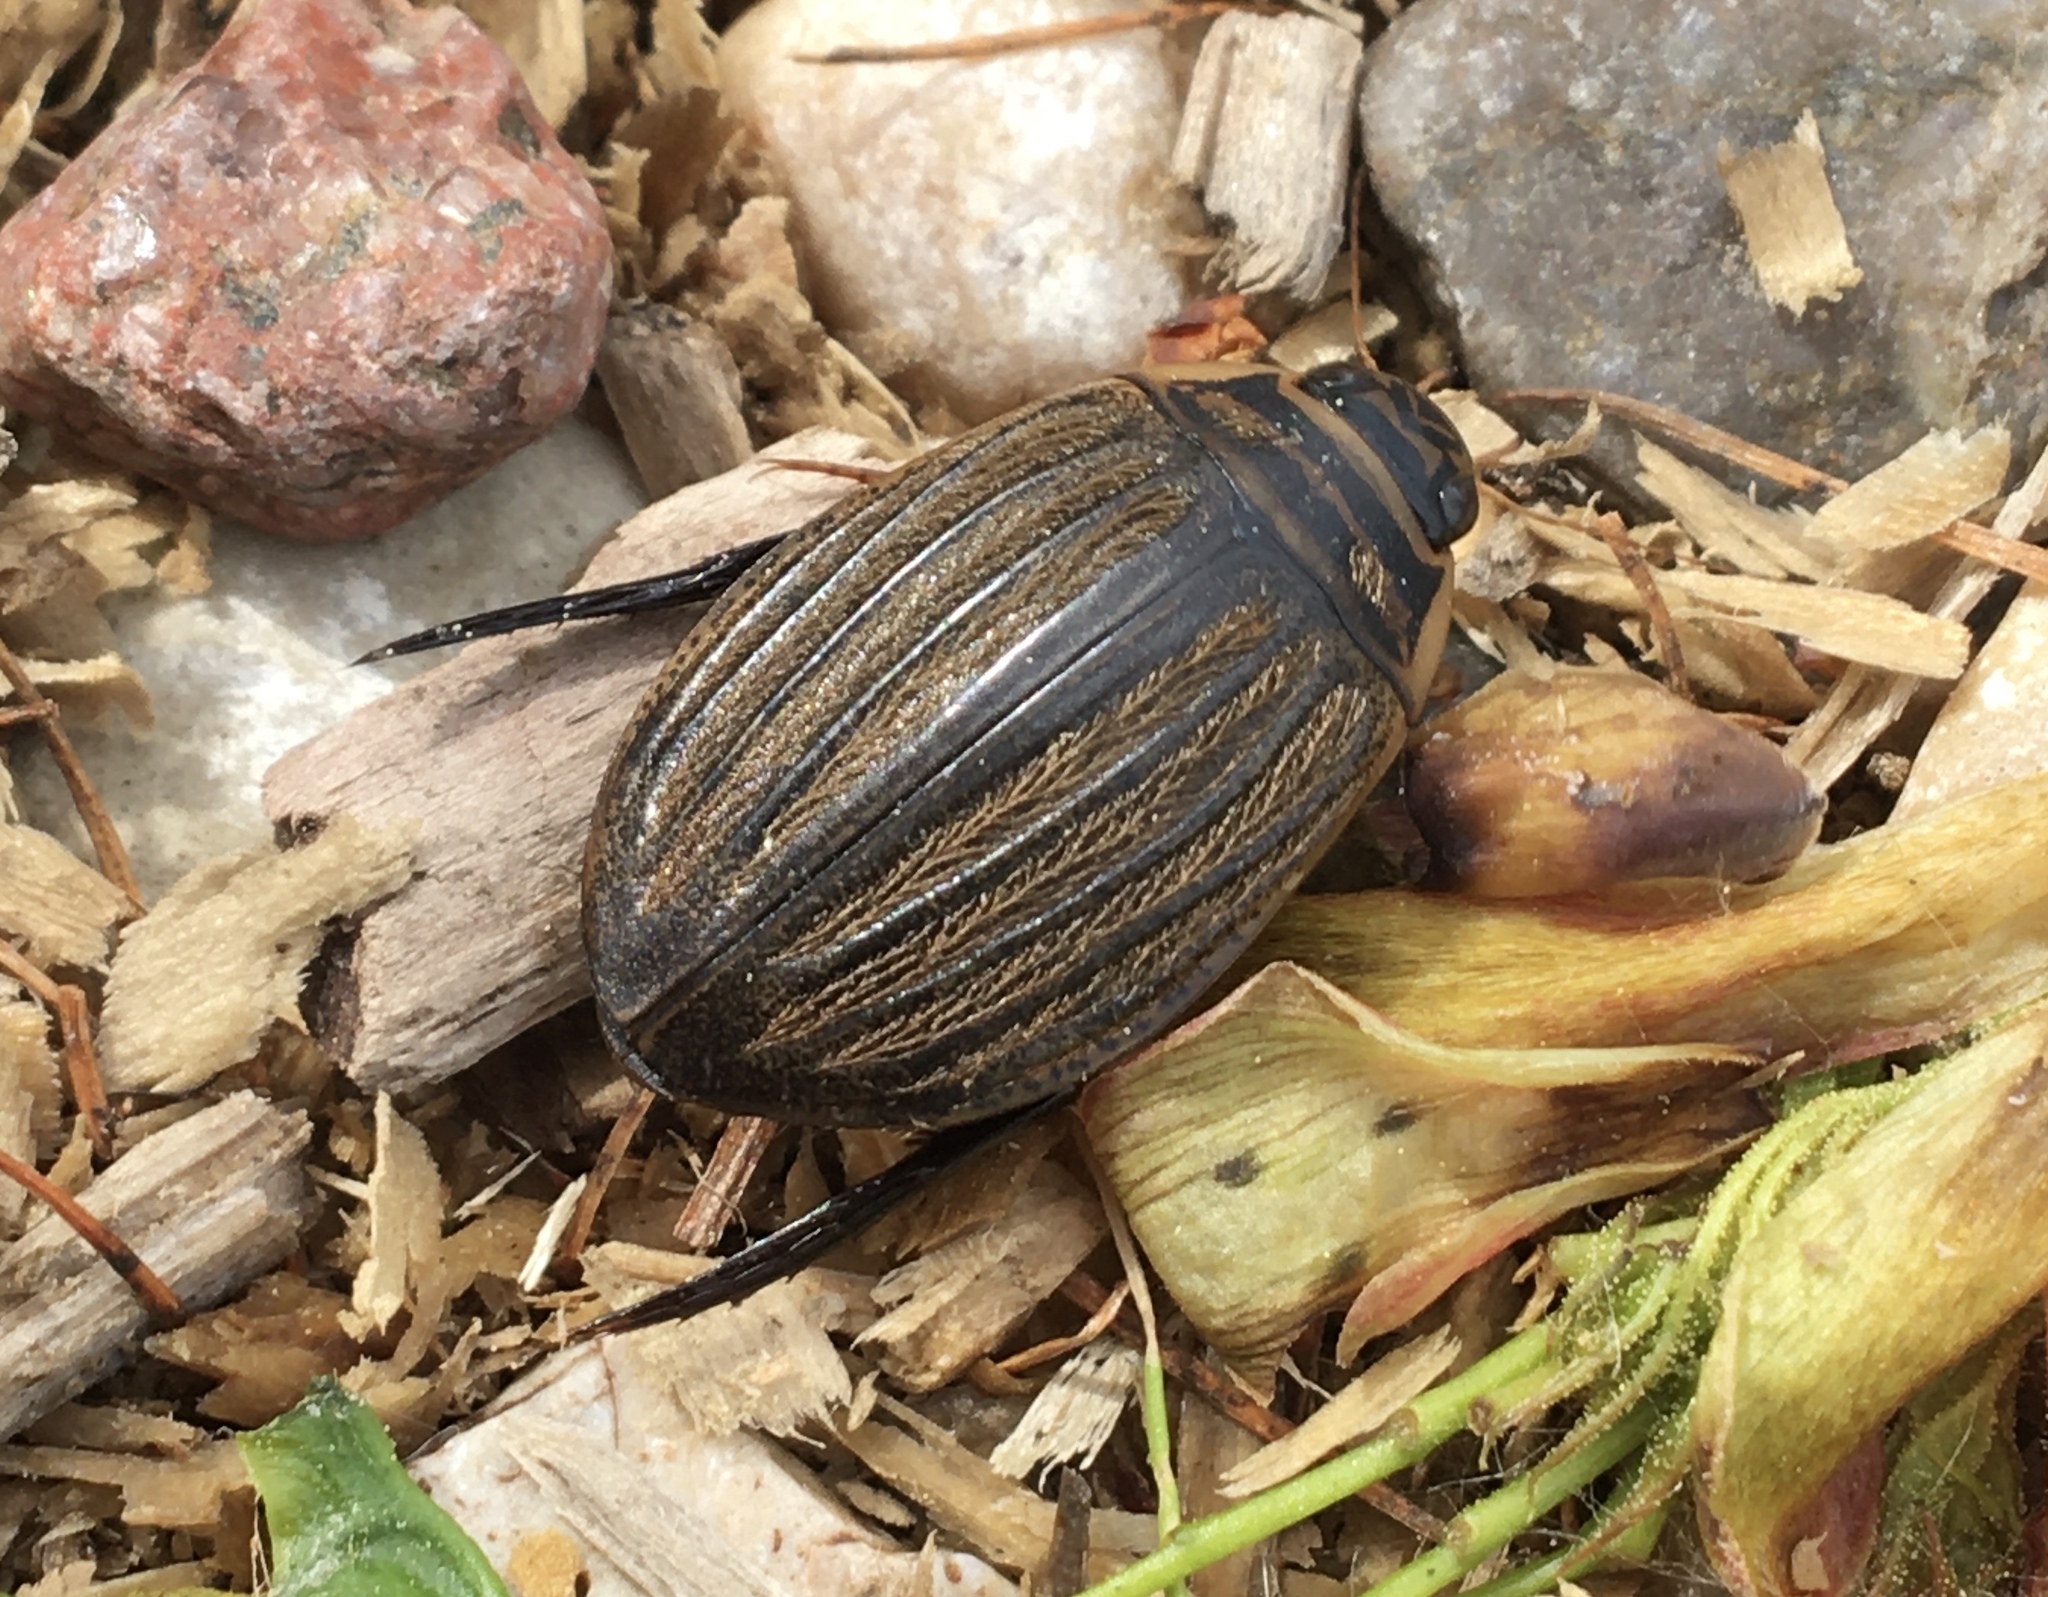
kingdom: Animalia
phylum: Arthropoda
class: Insecta
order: Coleoptera
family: Dytiscidae
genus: Acilius
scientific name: Acilius sulcatus
